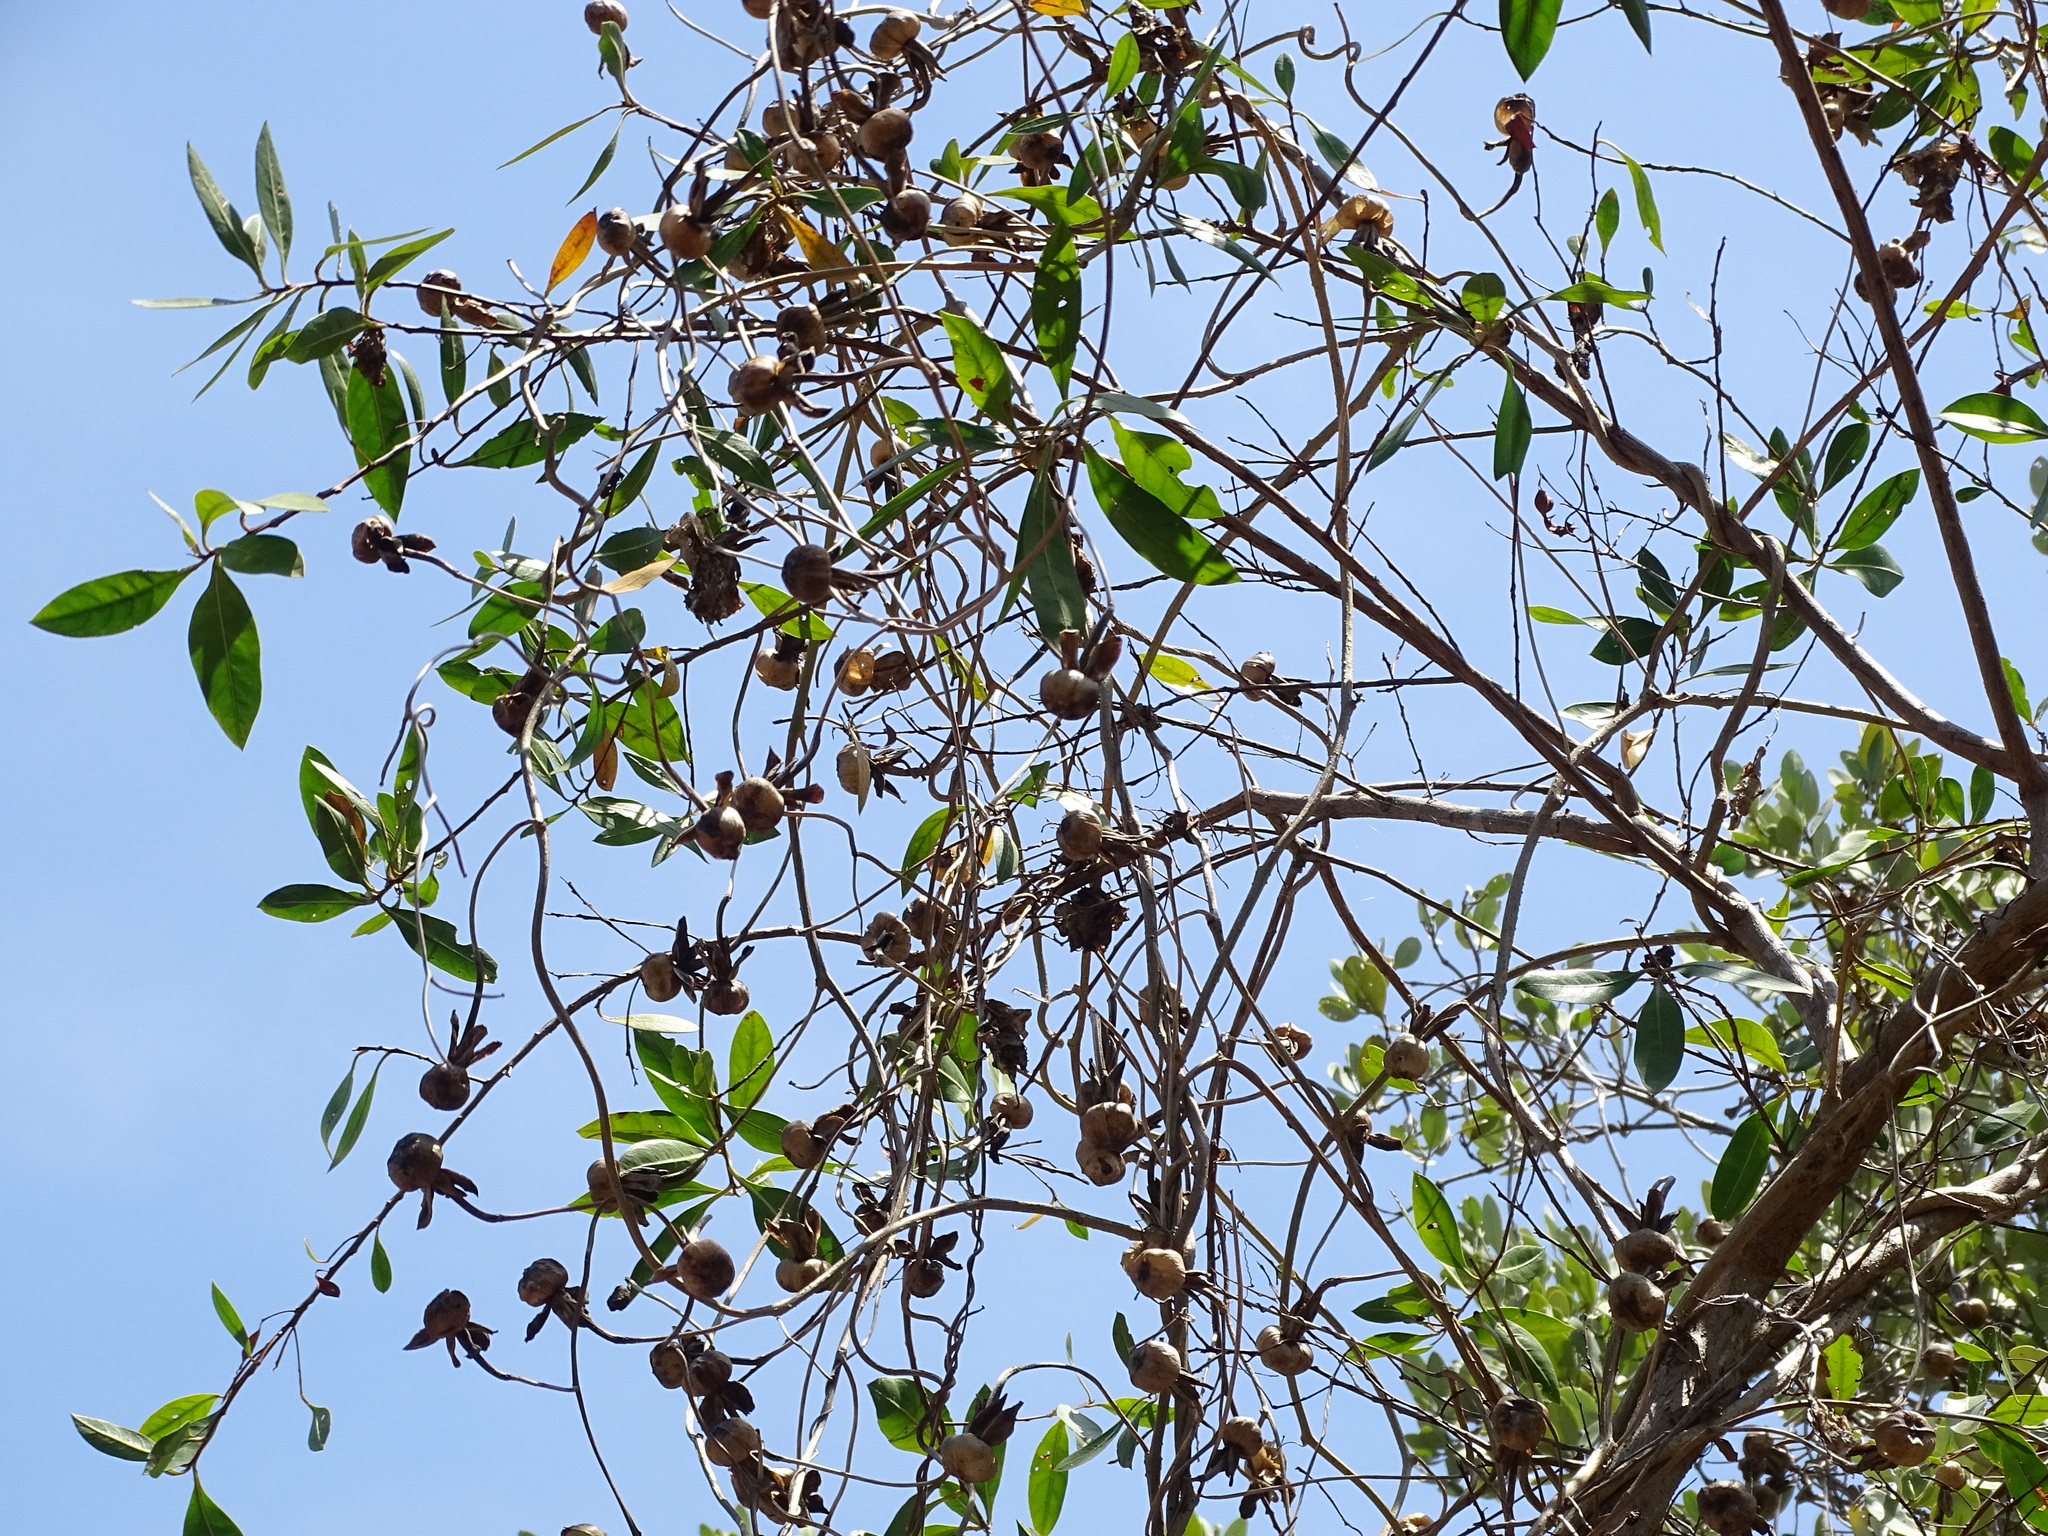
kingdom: Plantae
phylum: Tracheophyta
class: Magnoliopsida
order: Solanales
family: Convolvulaceae
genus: Ipomoea
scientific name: Ipomoea violacea
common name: Beach moonflower
